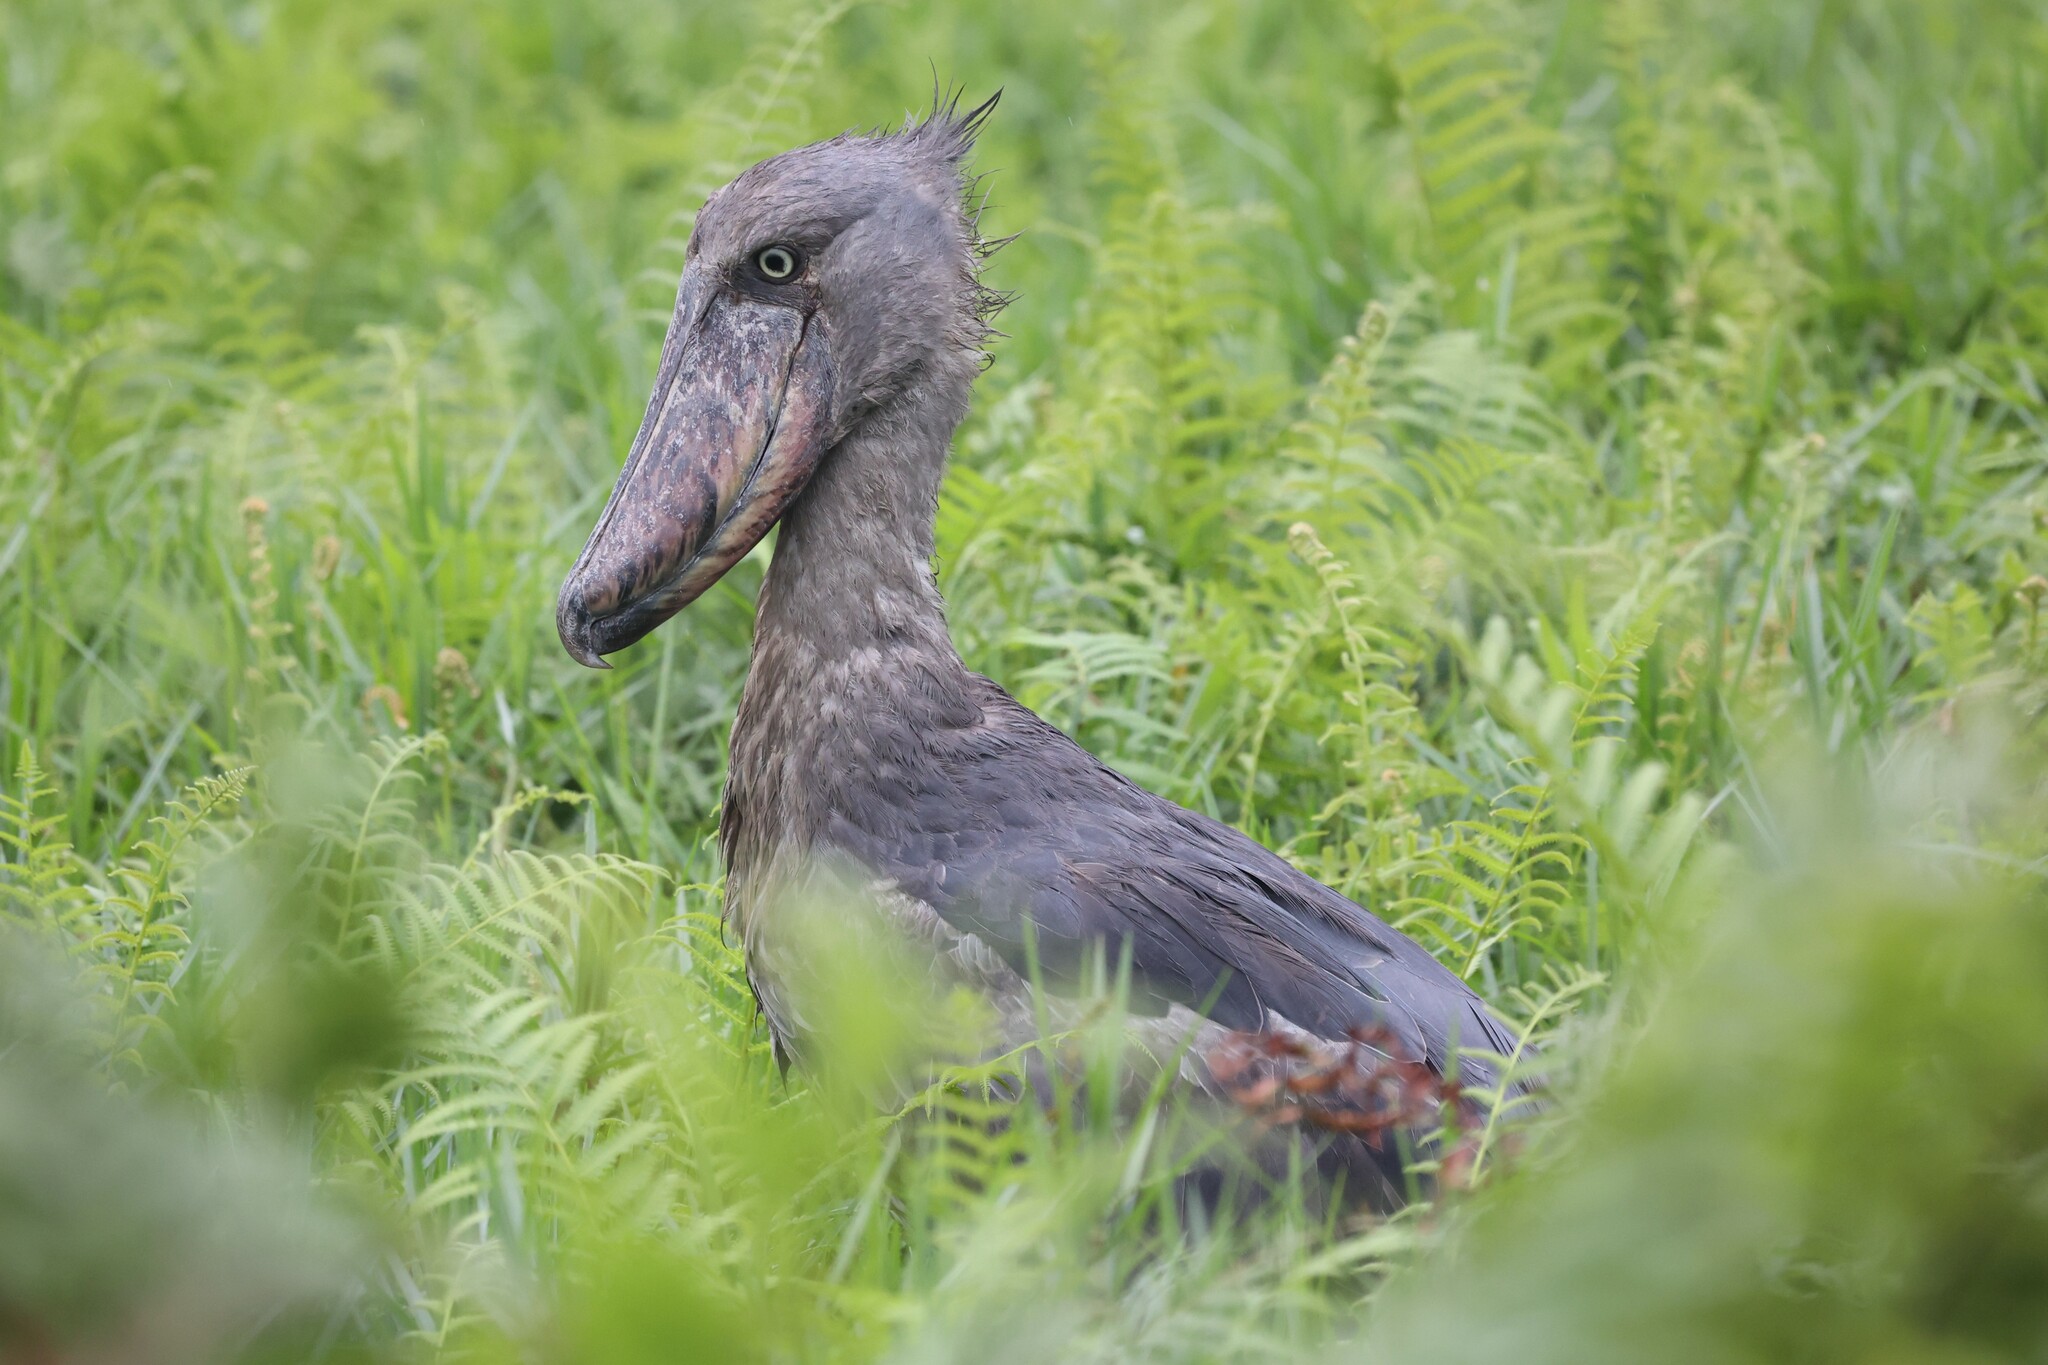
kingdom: Animalia
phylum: Chordata
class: Aves
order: Pelecaniformes
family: Balaenicipitidae
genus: Balaeniceps
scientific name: Balaeniceps rex
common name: Shoebill
